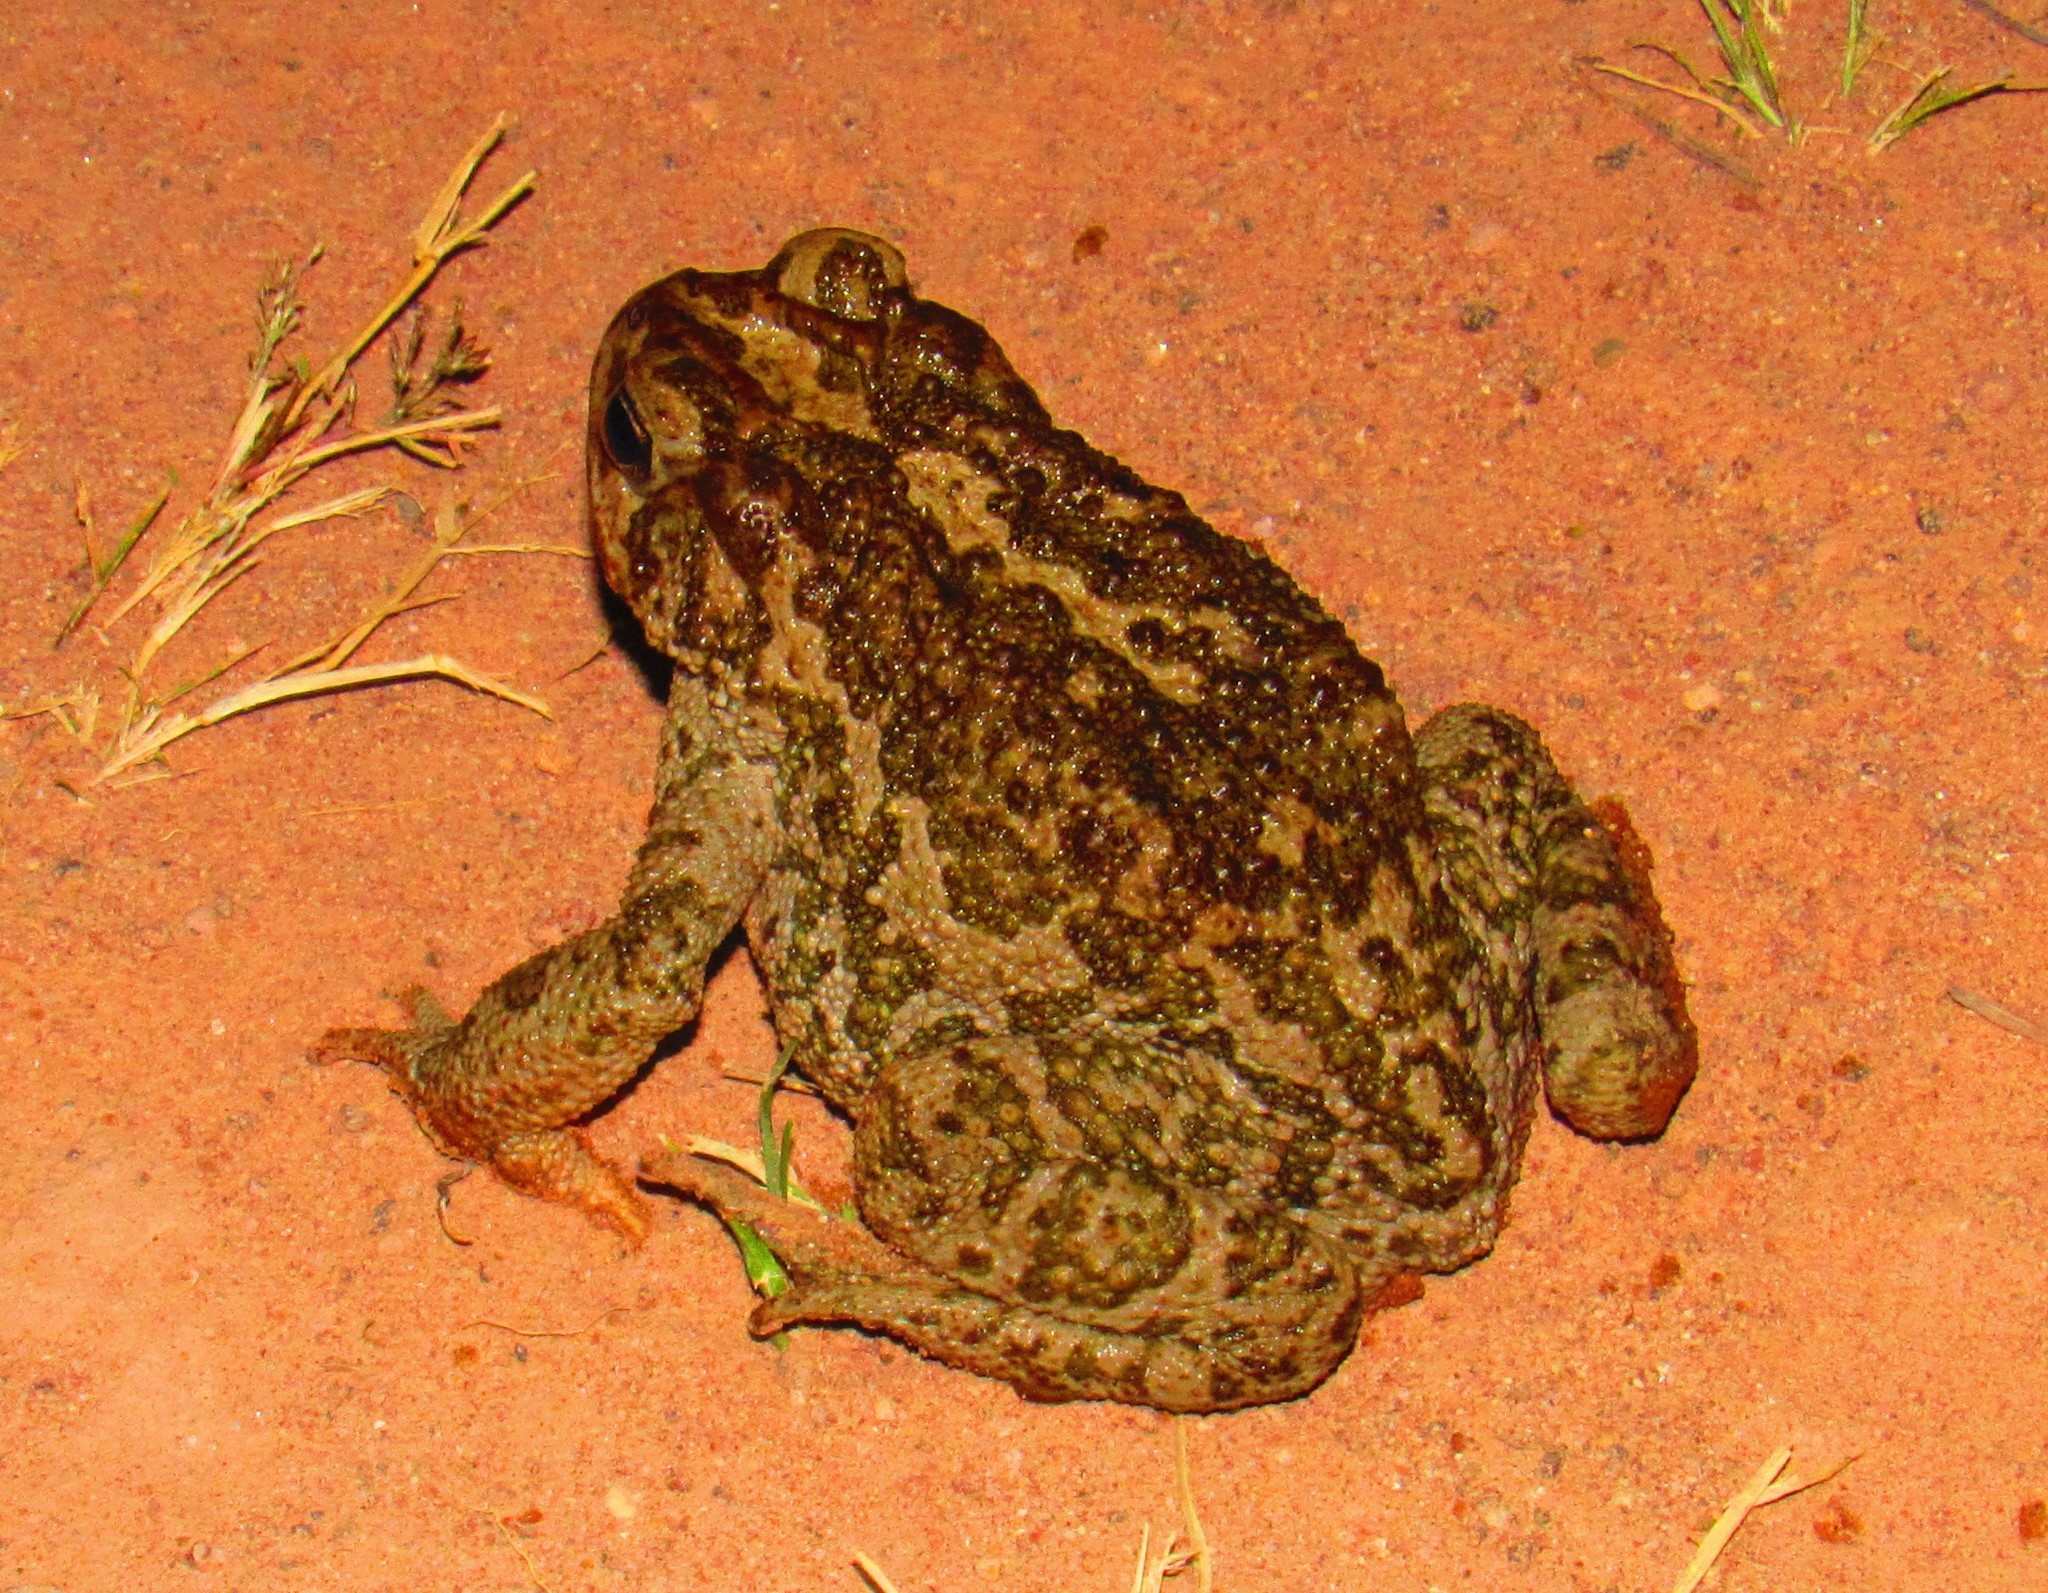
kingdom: Animalia
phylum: Chordata
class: Amphibia
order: Anura
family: Bufonidae
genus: Incilius
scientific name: Incilius occidentalis
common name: Pine toad
